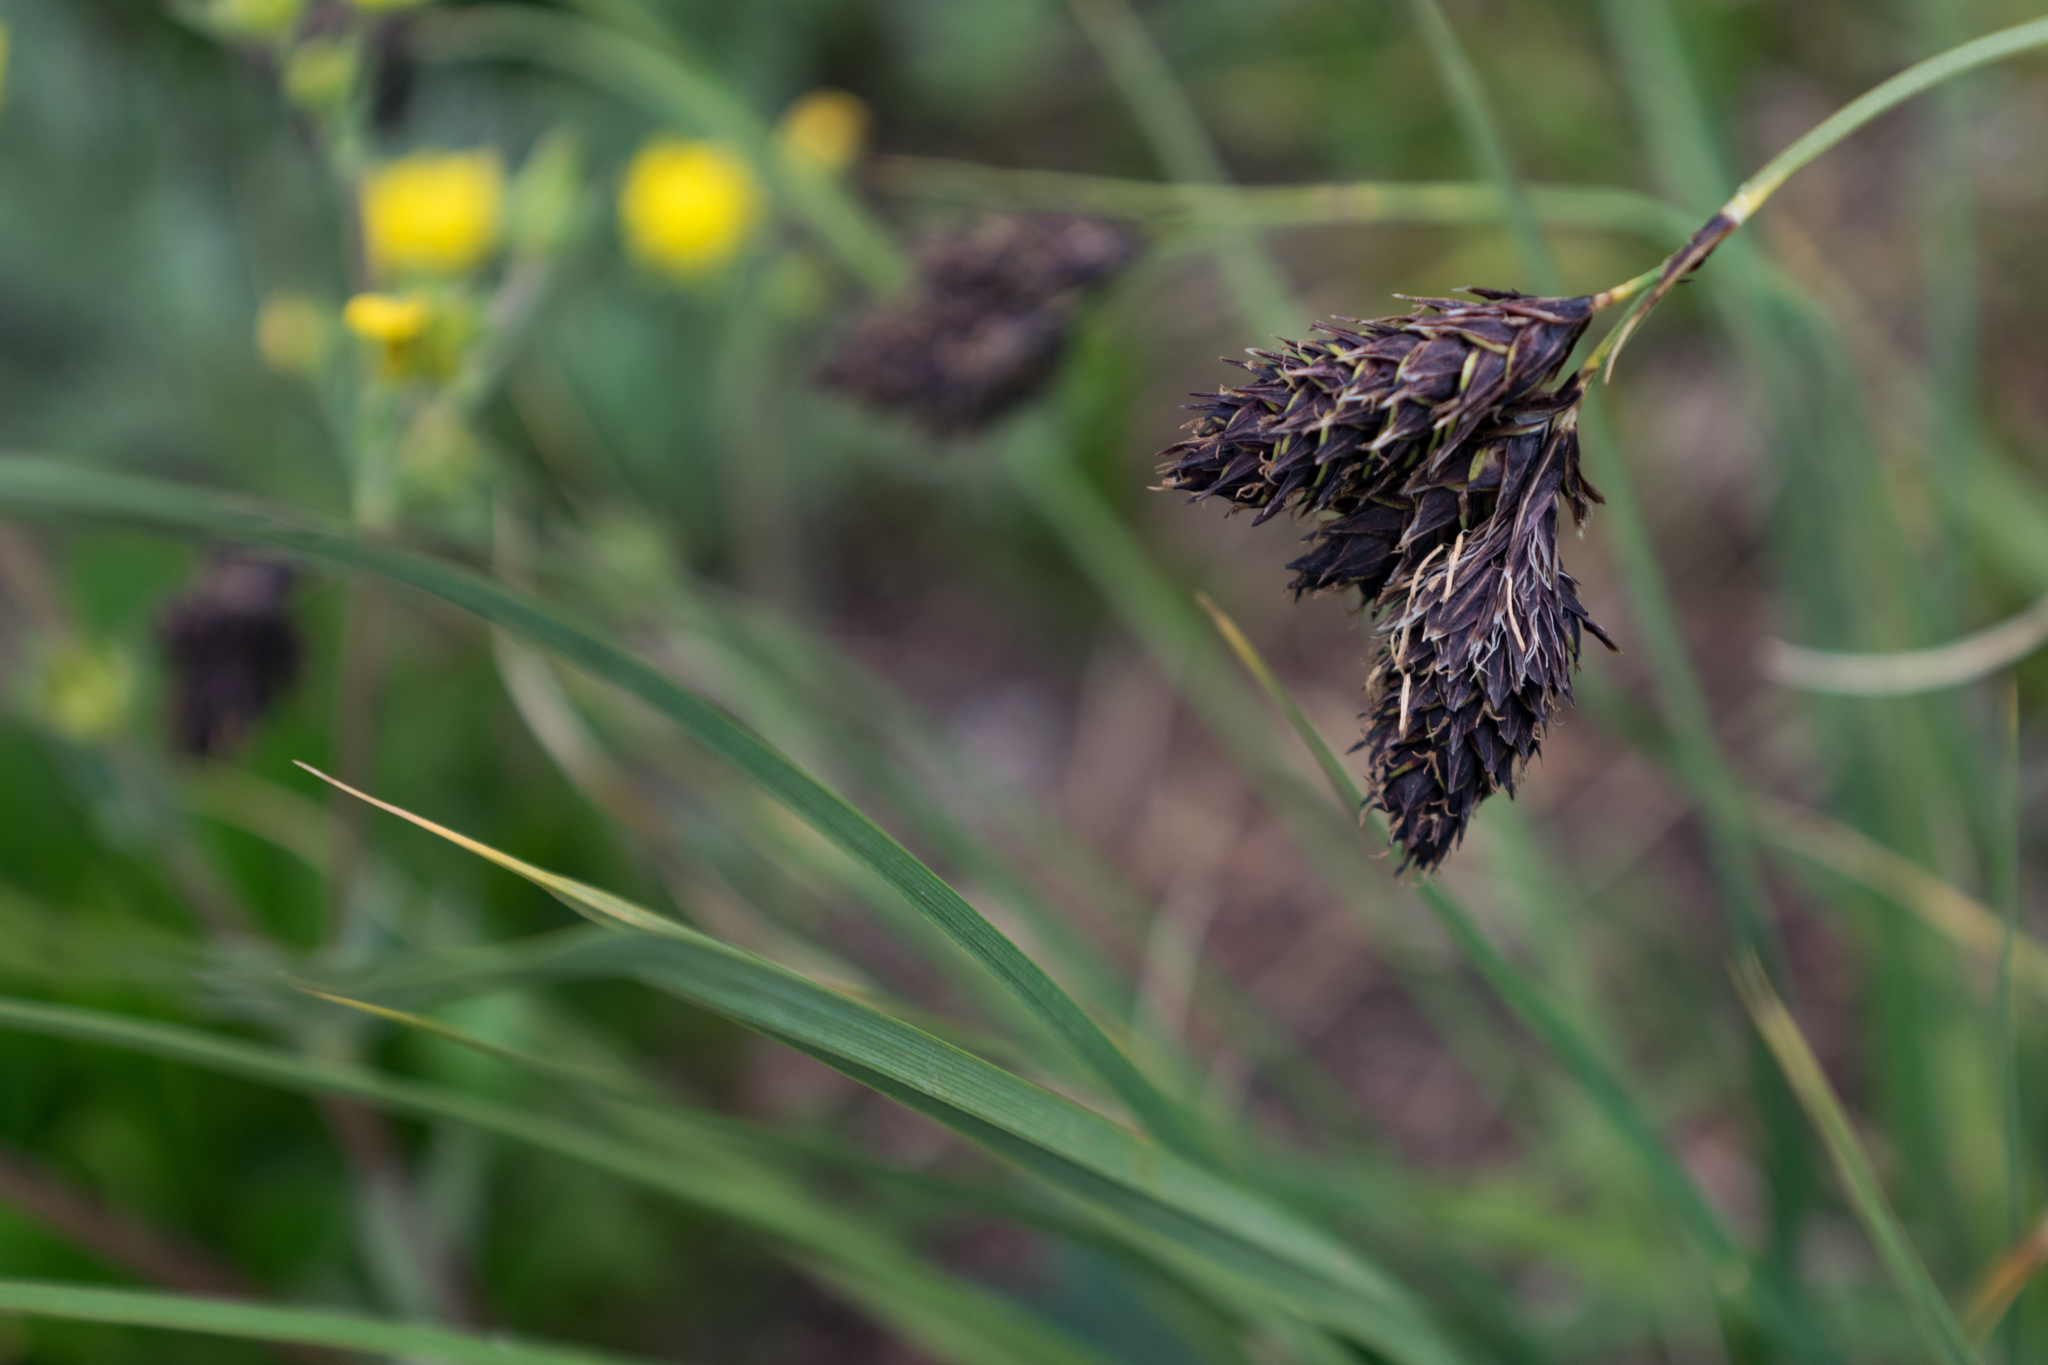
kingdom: Plantae
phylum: Tracheophyta
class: Liliopsida
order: Poales
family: Cyperaceae
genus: Carex
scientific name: Carex chalciolepis
